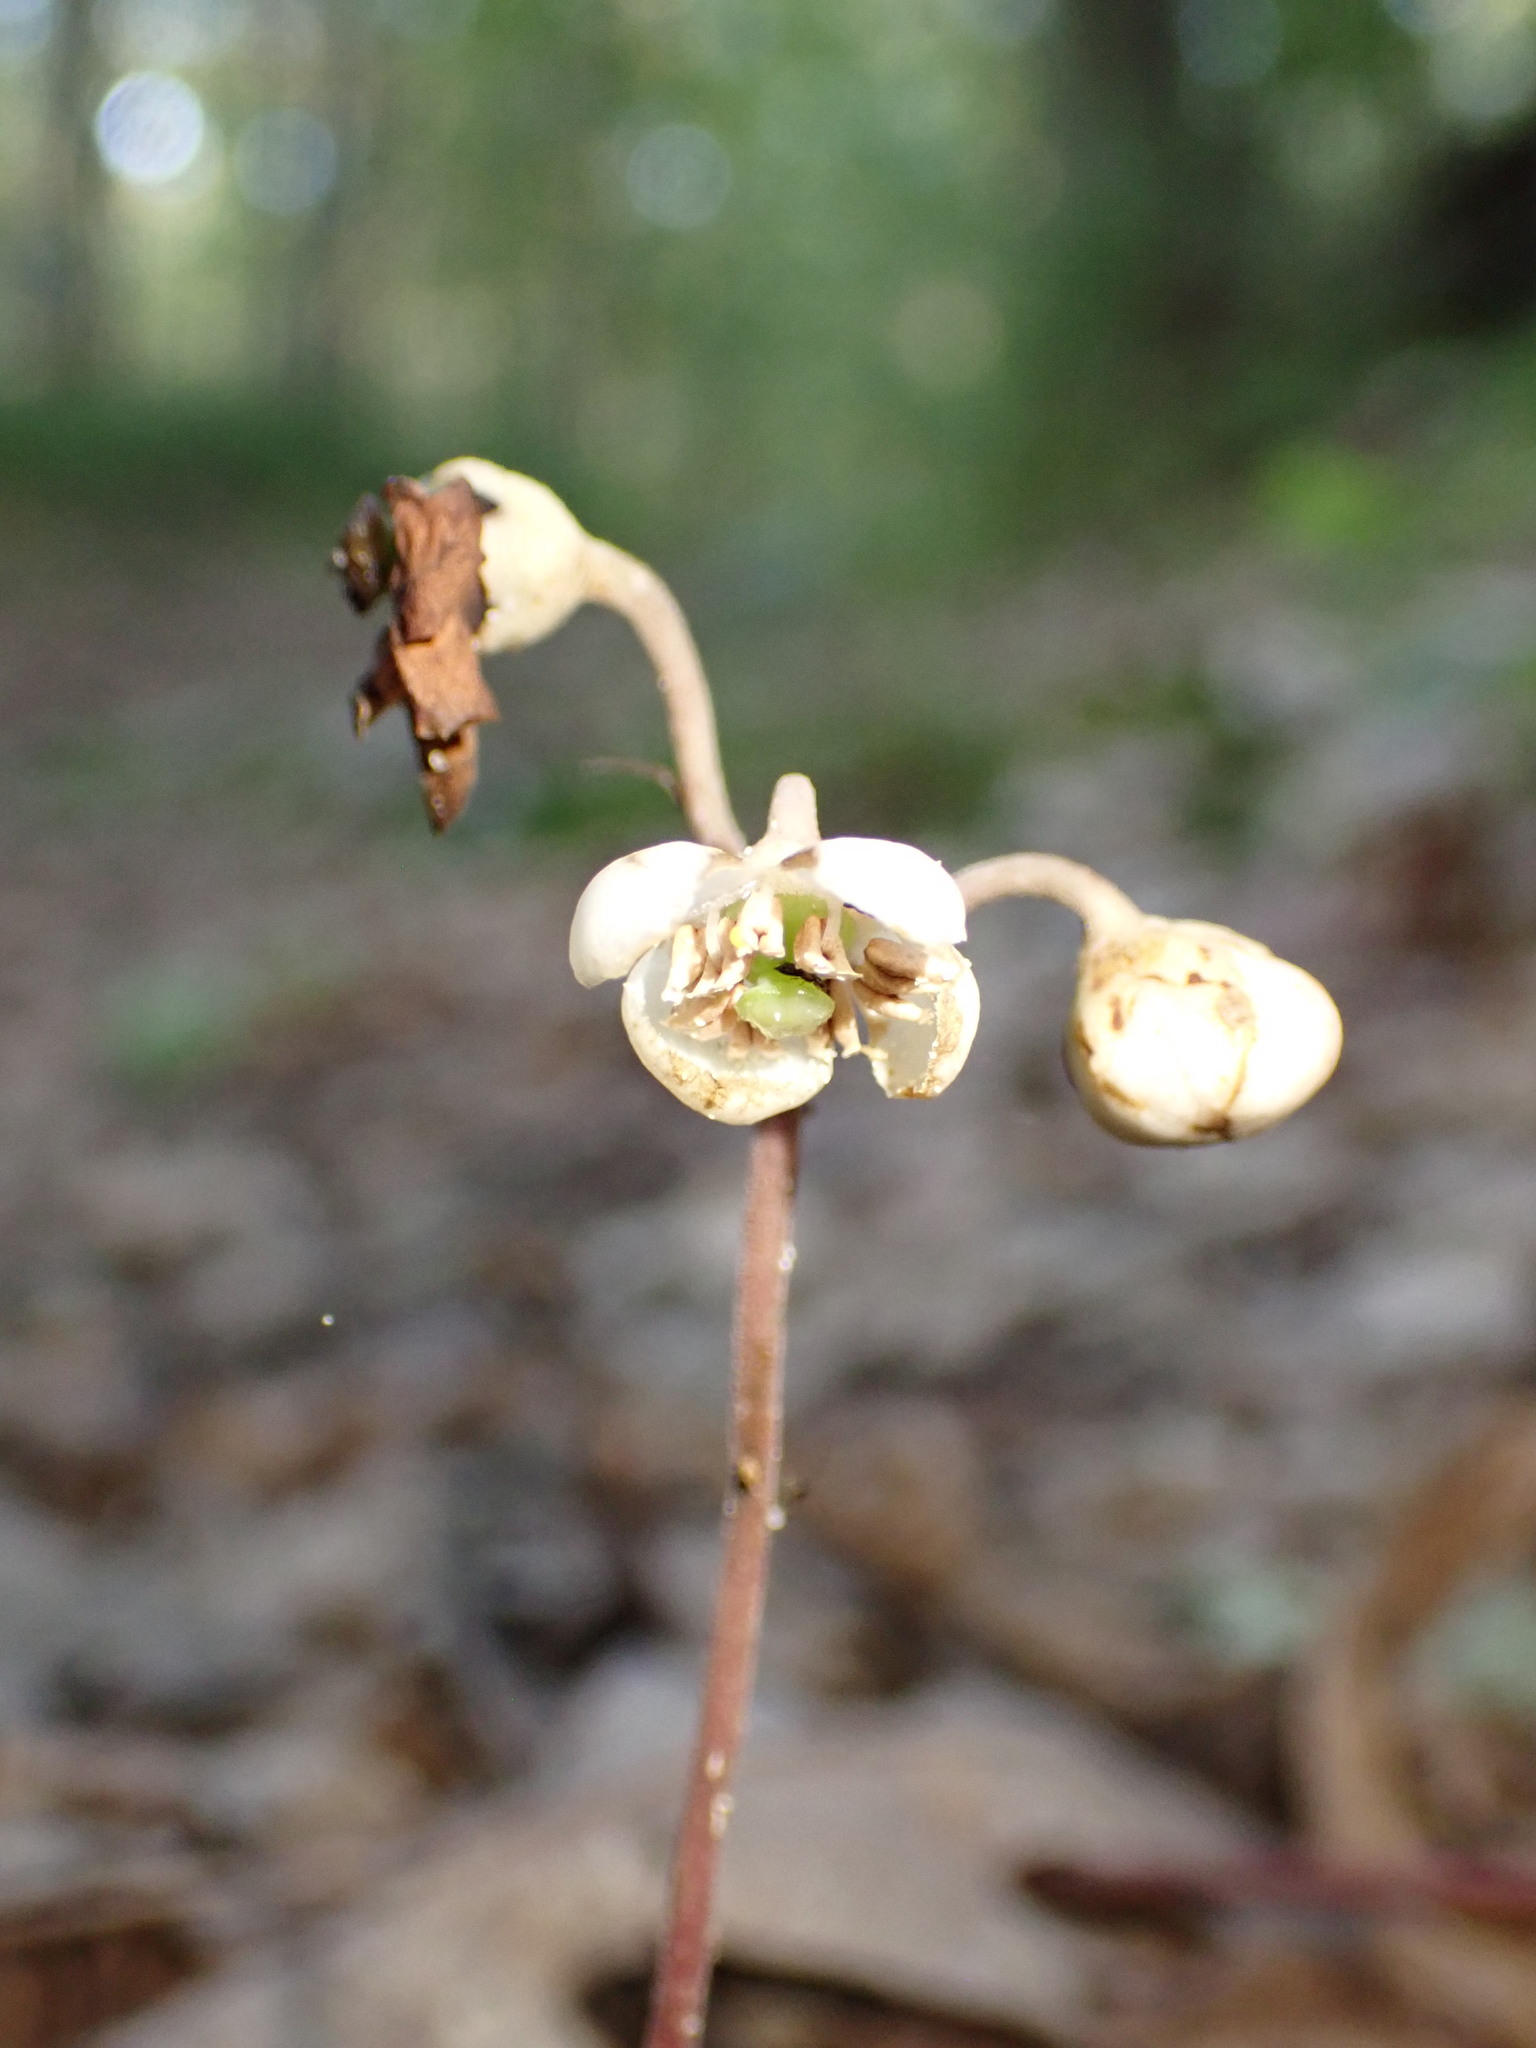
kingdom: Plantae
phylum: Tracheophyta
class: Magnoliopsida
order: Ericales
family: Ericaceae
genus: Chimaphila
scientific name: Chimaphila maculata
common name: Spotted pipsissewa
